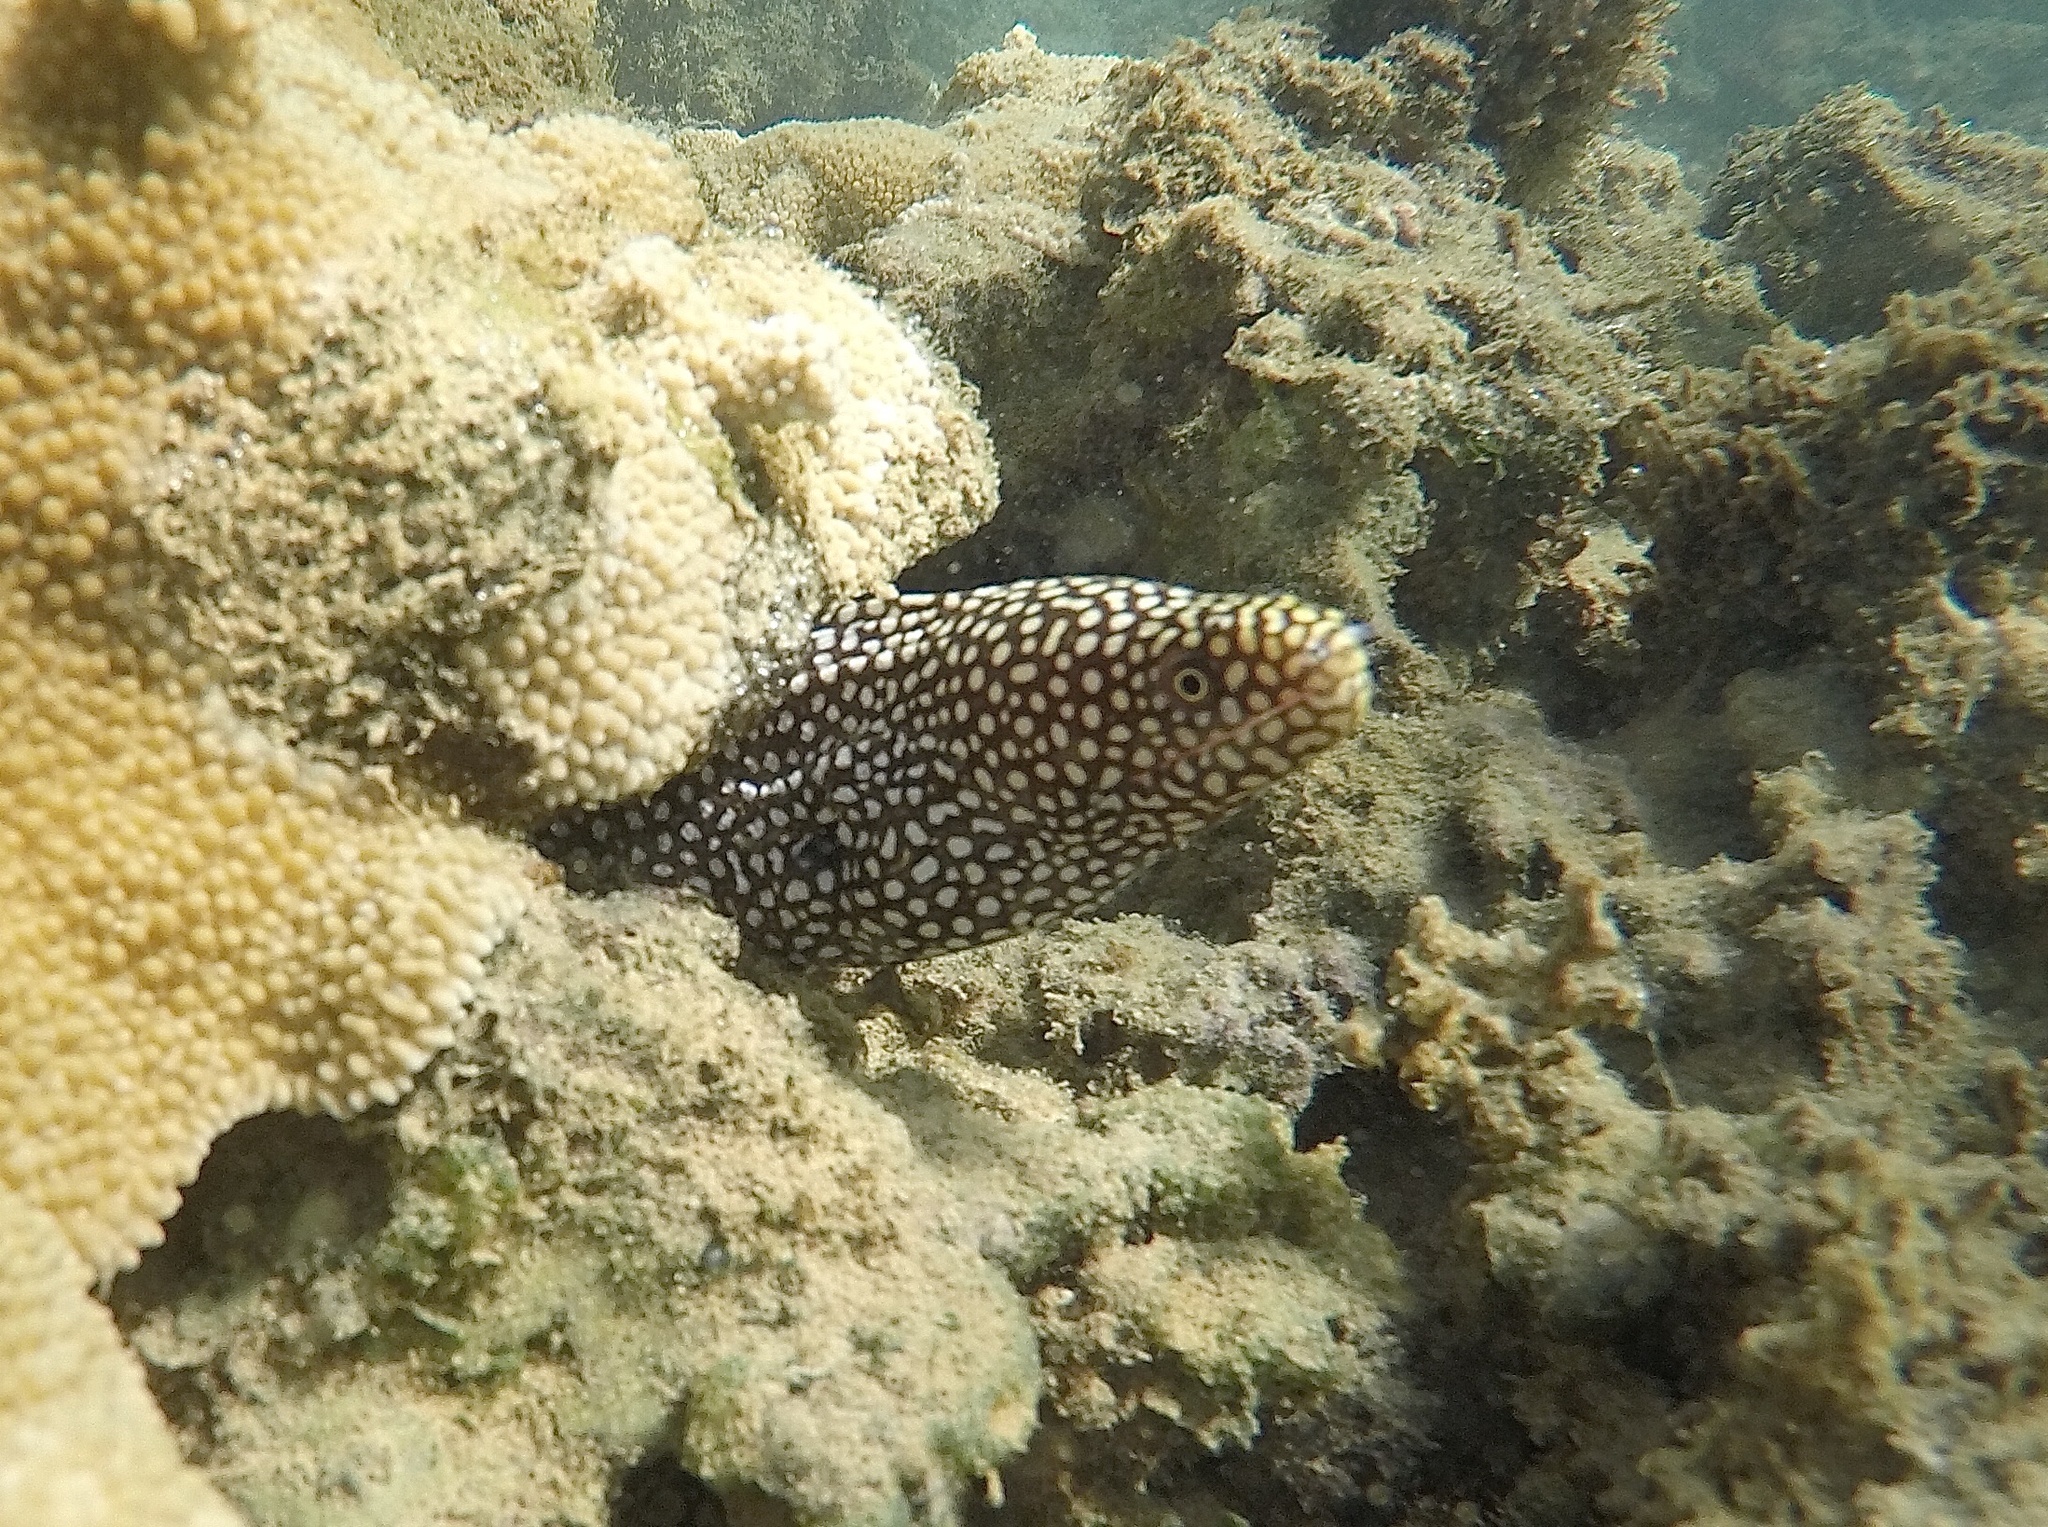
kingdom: Animalia
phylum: Chordata
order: Anguilliformes
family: Muraenidae
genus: Gymnothorax
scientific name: Gymnothorax meleagris
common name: Guineafowl moray
